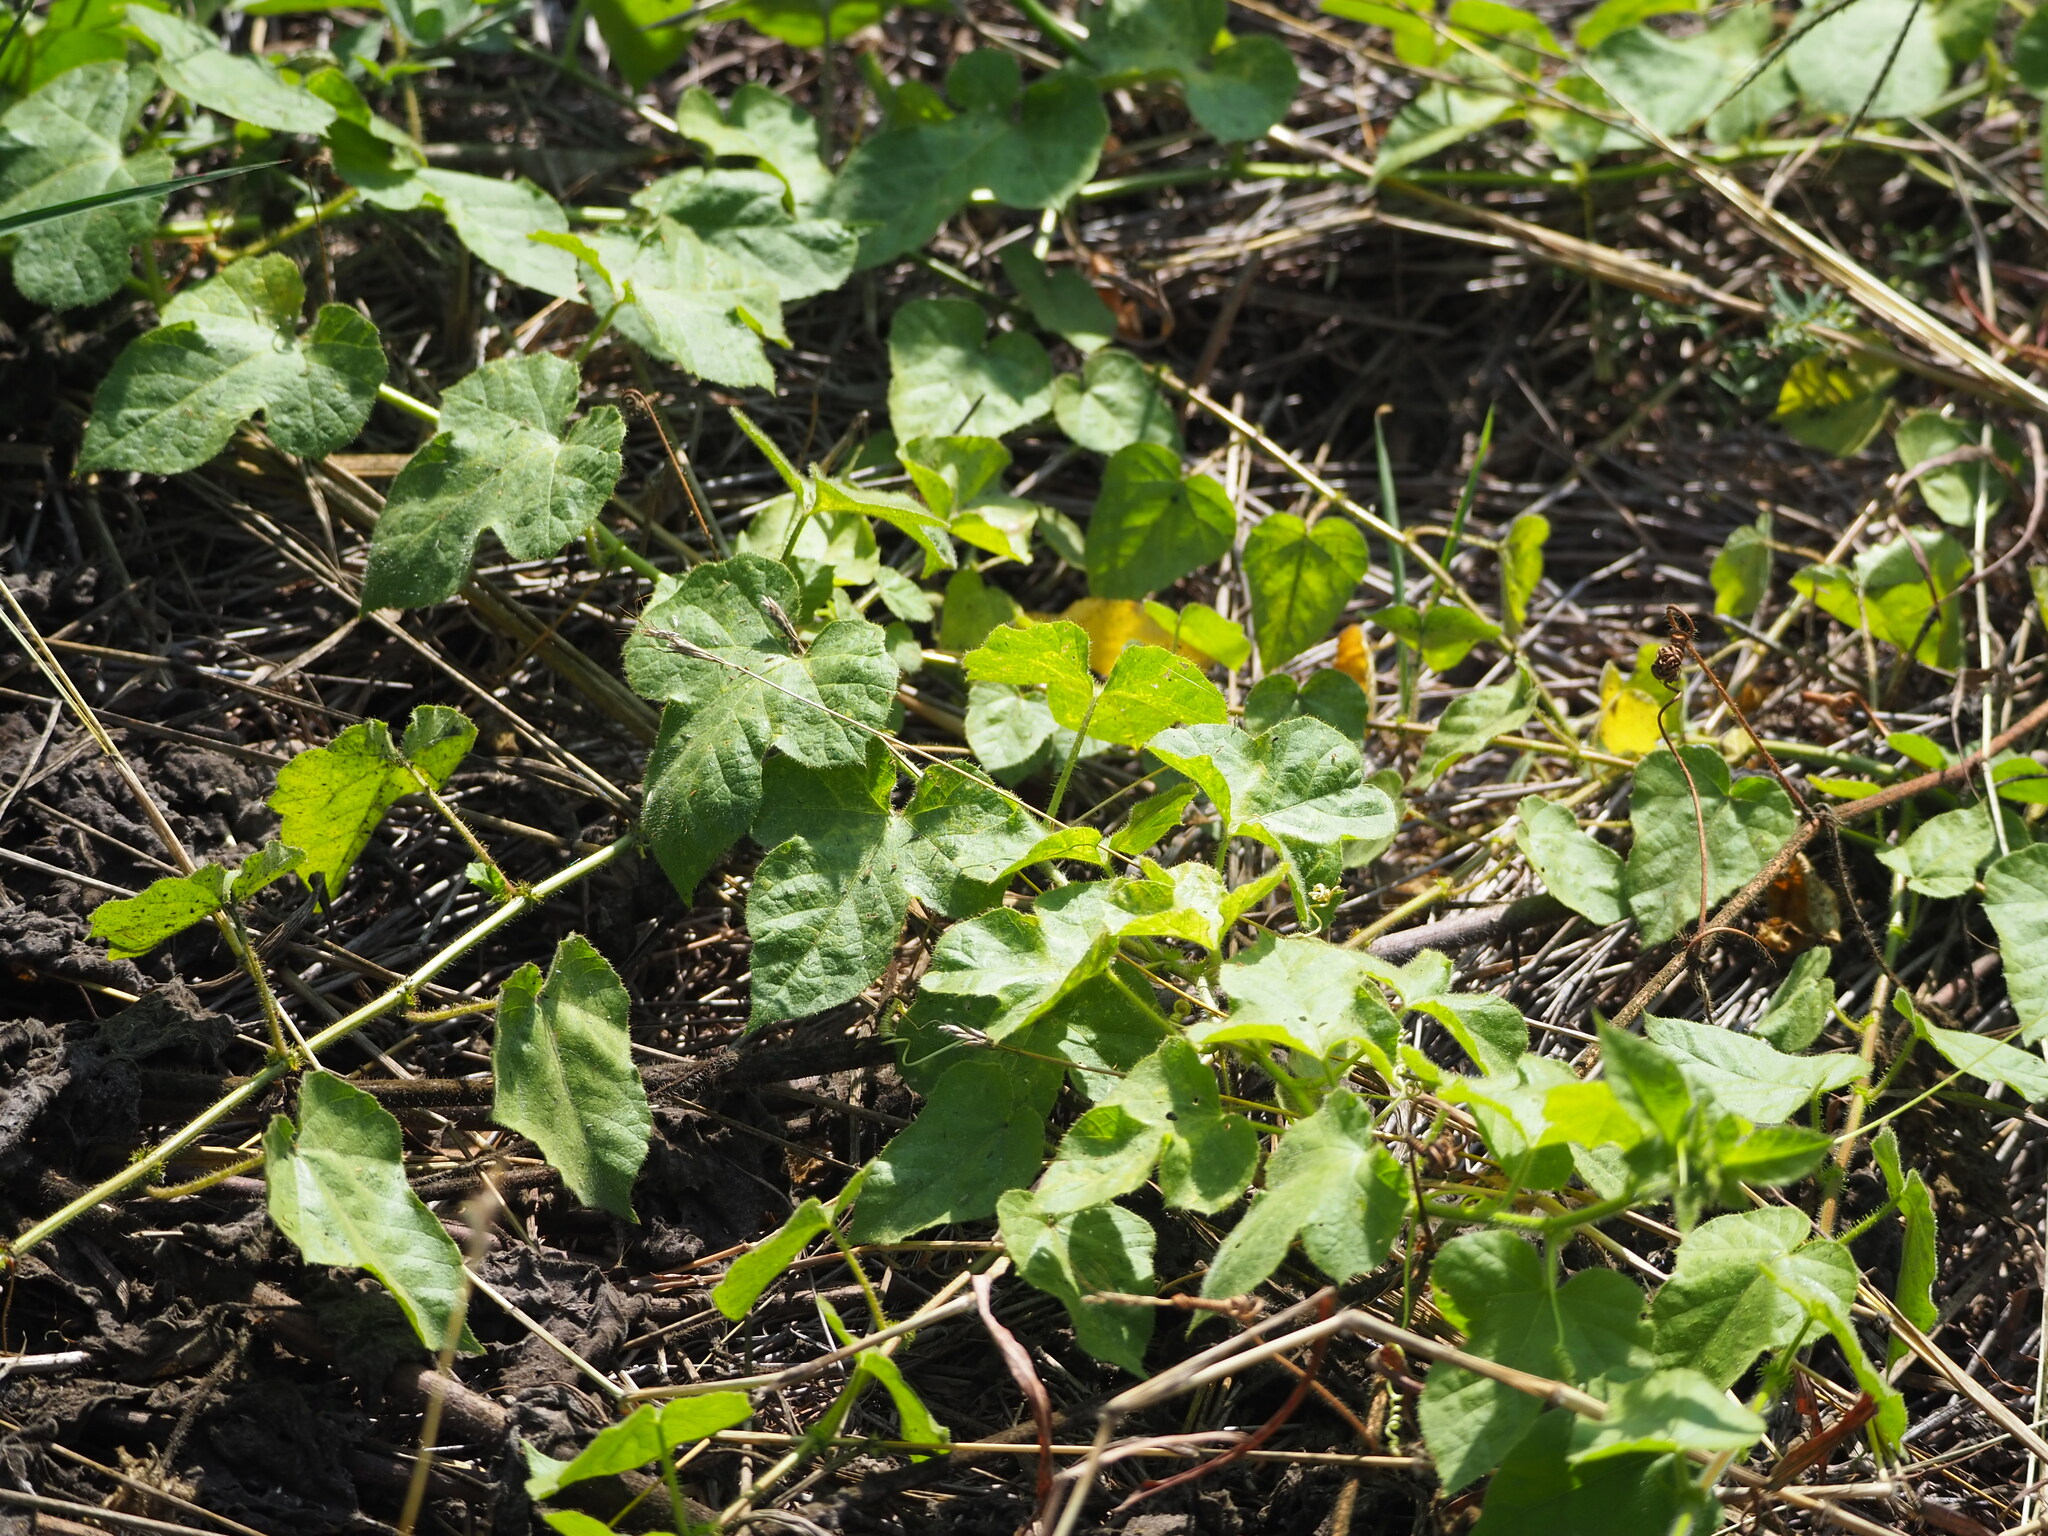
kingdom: Plantae
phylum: Tracheophyta
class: Magnoliopsida
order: Malpighiales
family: Passifloraceae
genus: Passiflora
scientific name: Passiflora vesicaria
